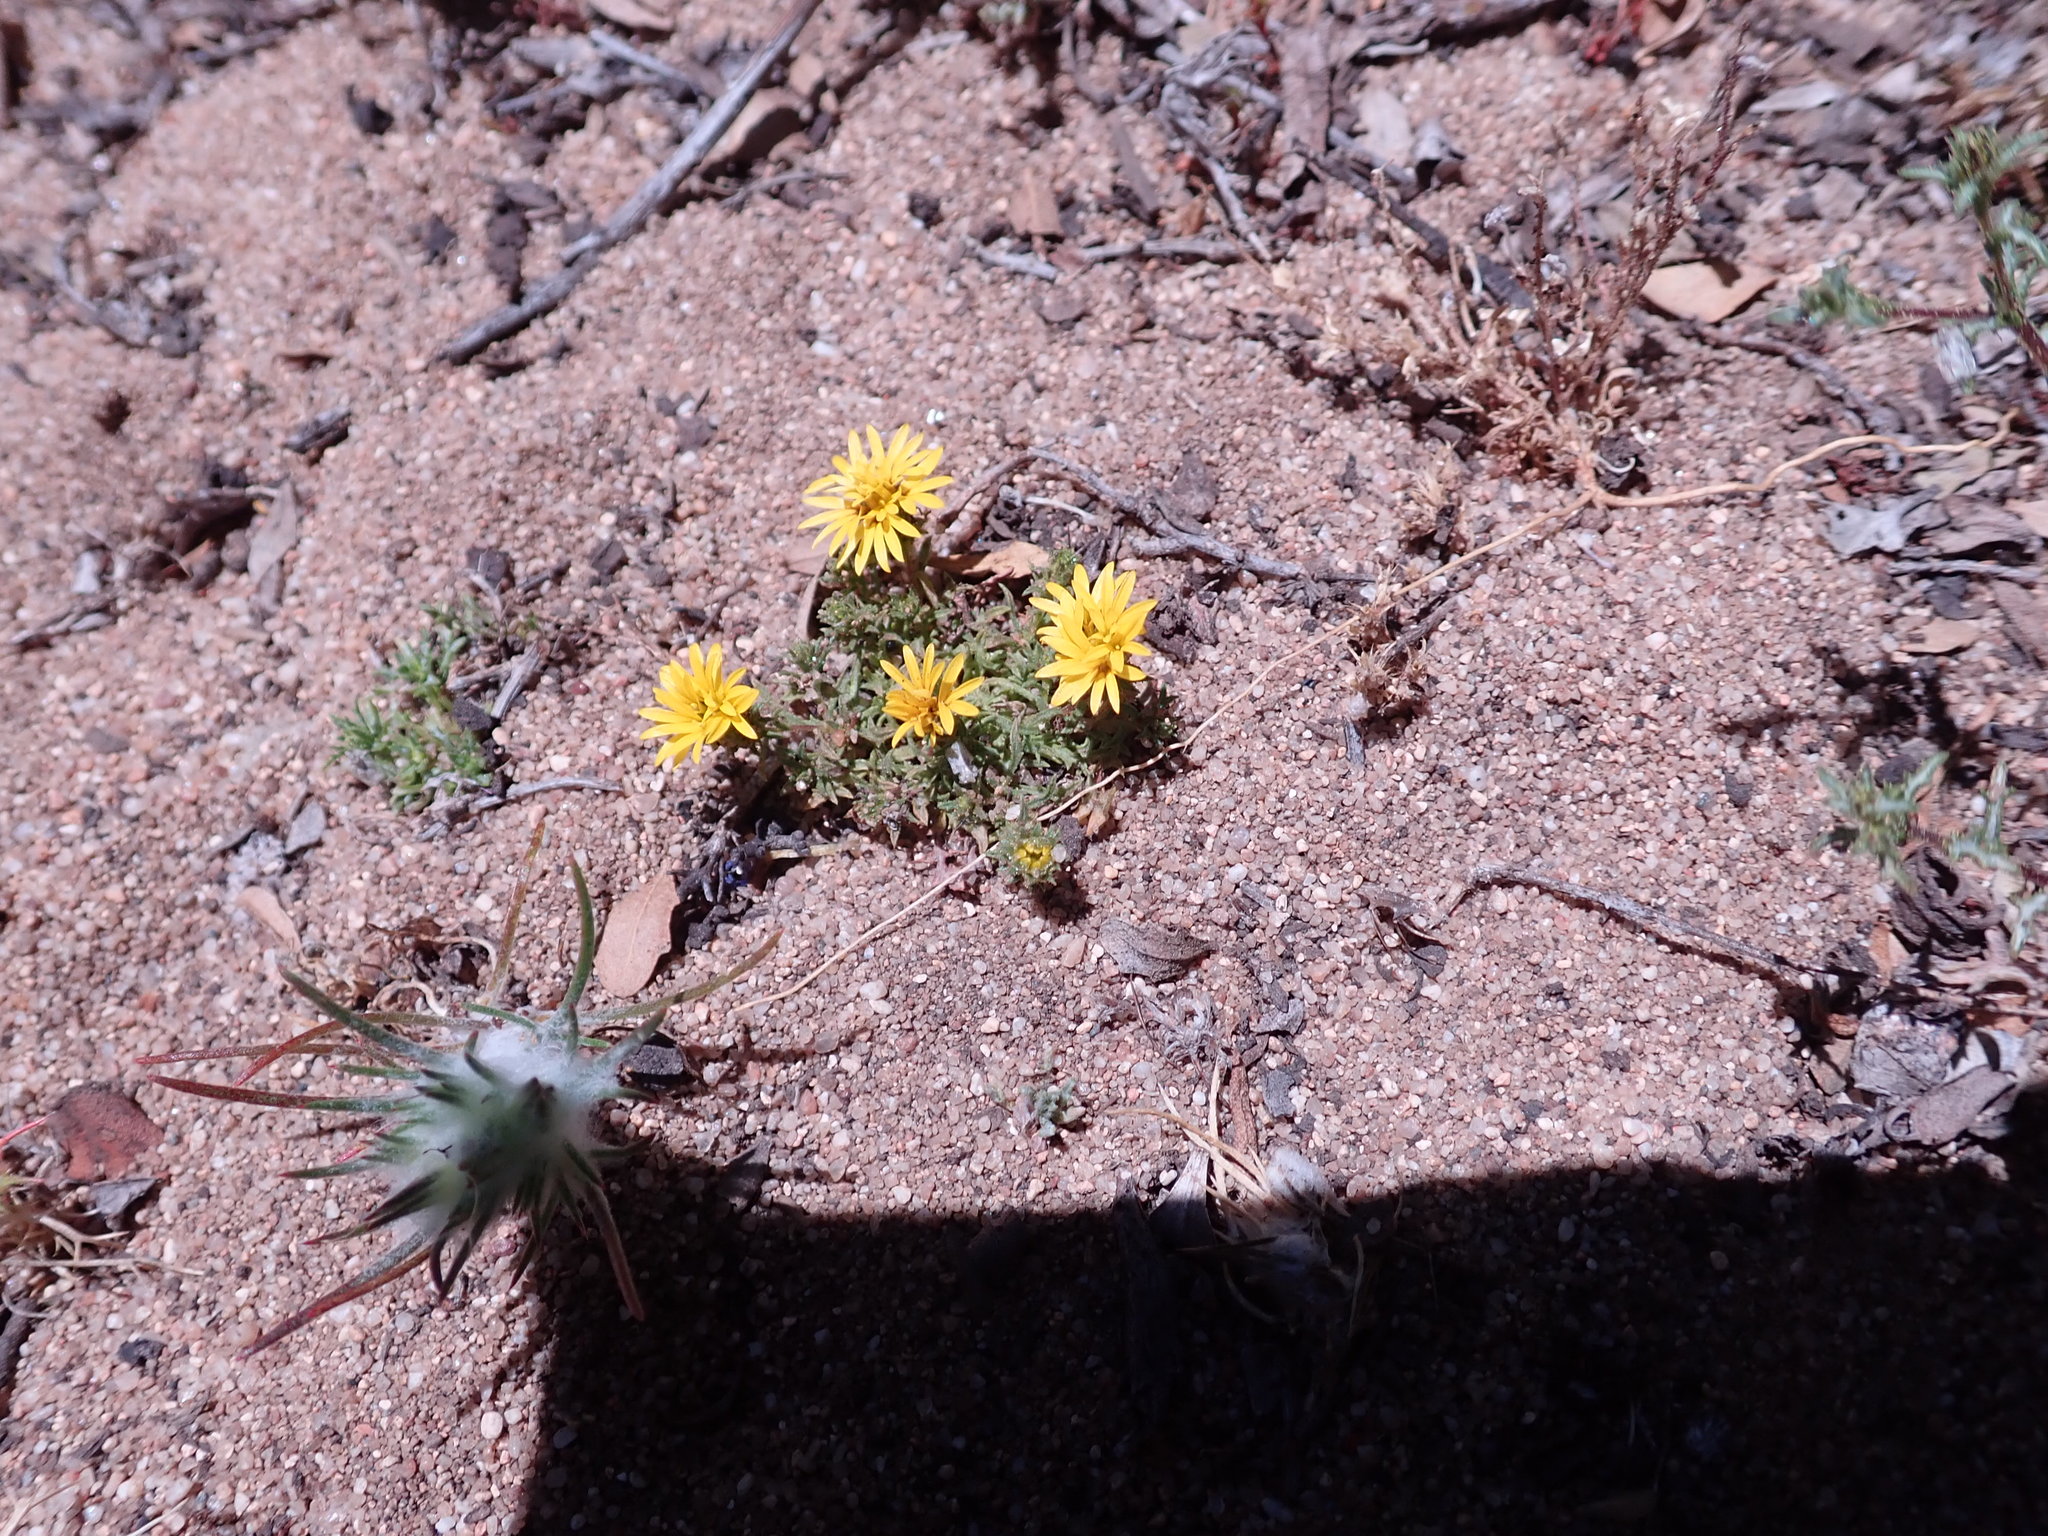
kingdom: Plantae
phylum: Tracheophyta
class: Magnoliopsida
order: Asterales
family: Asteraceae
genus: Lessingia
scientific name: Lessingia pectinata
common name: Valley lessingia
